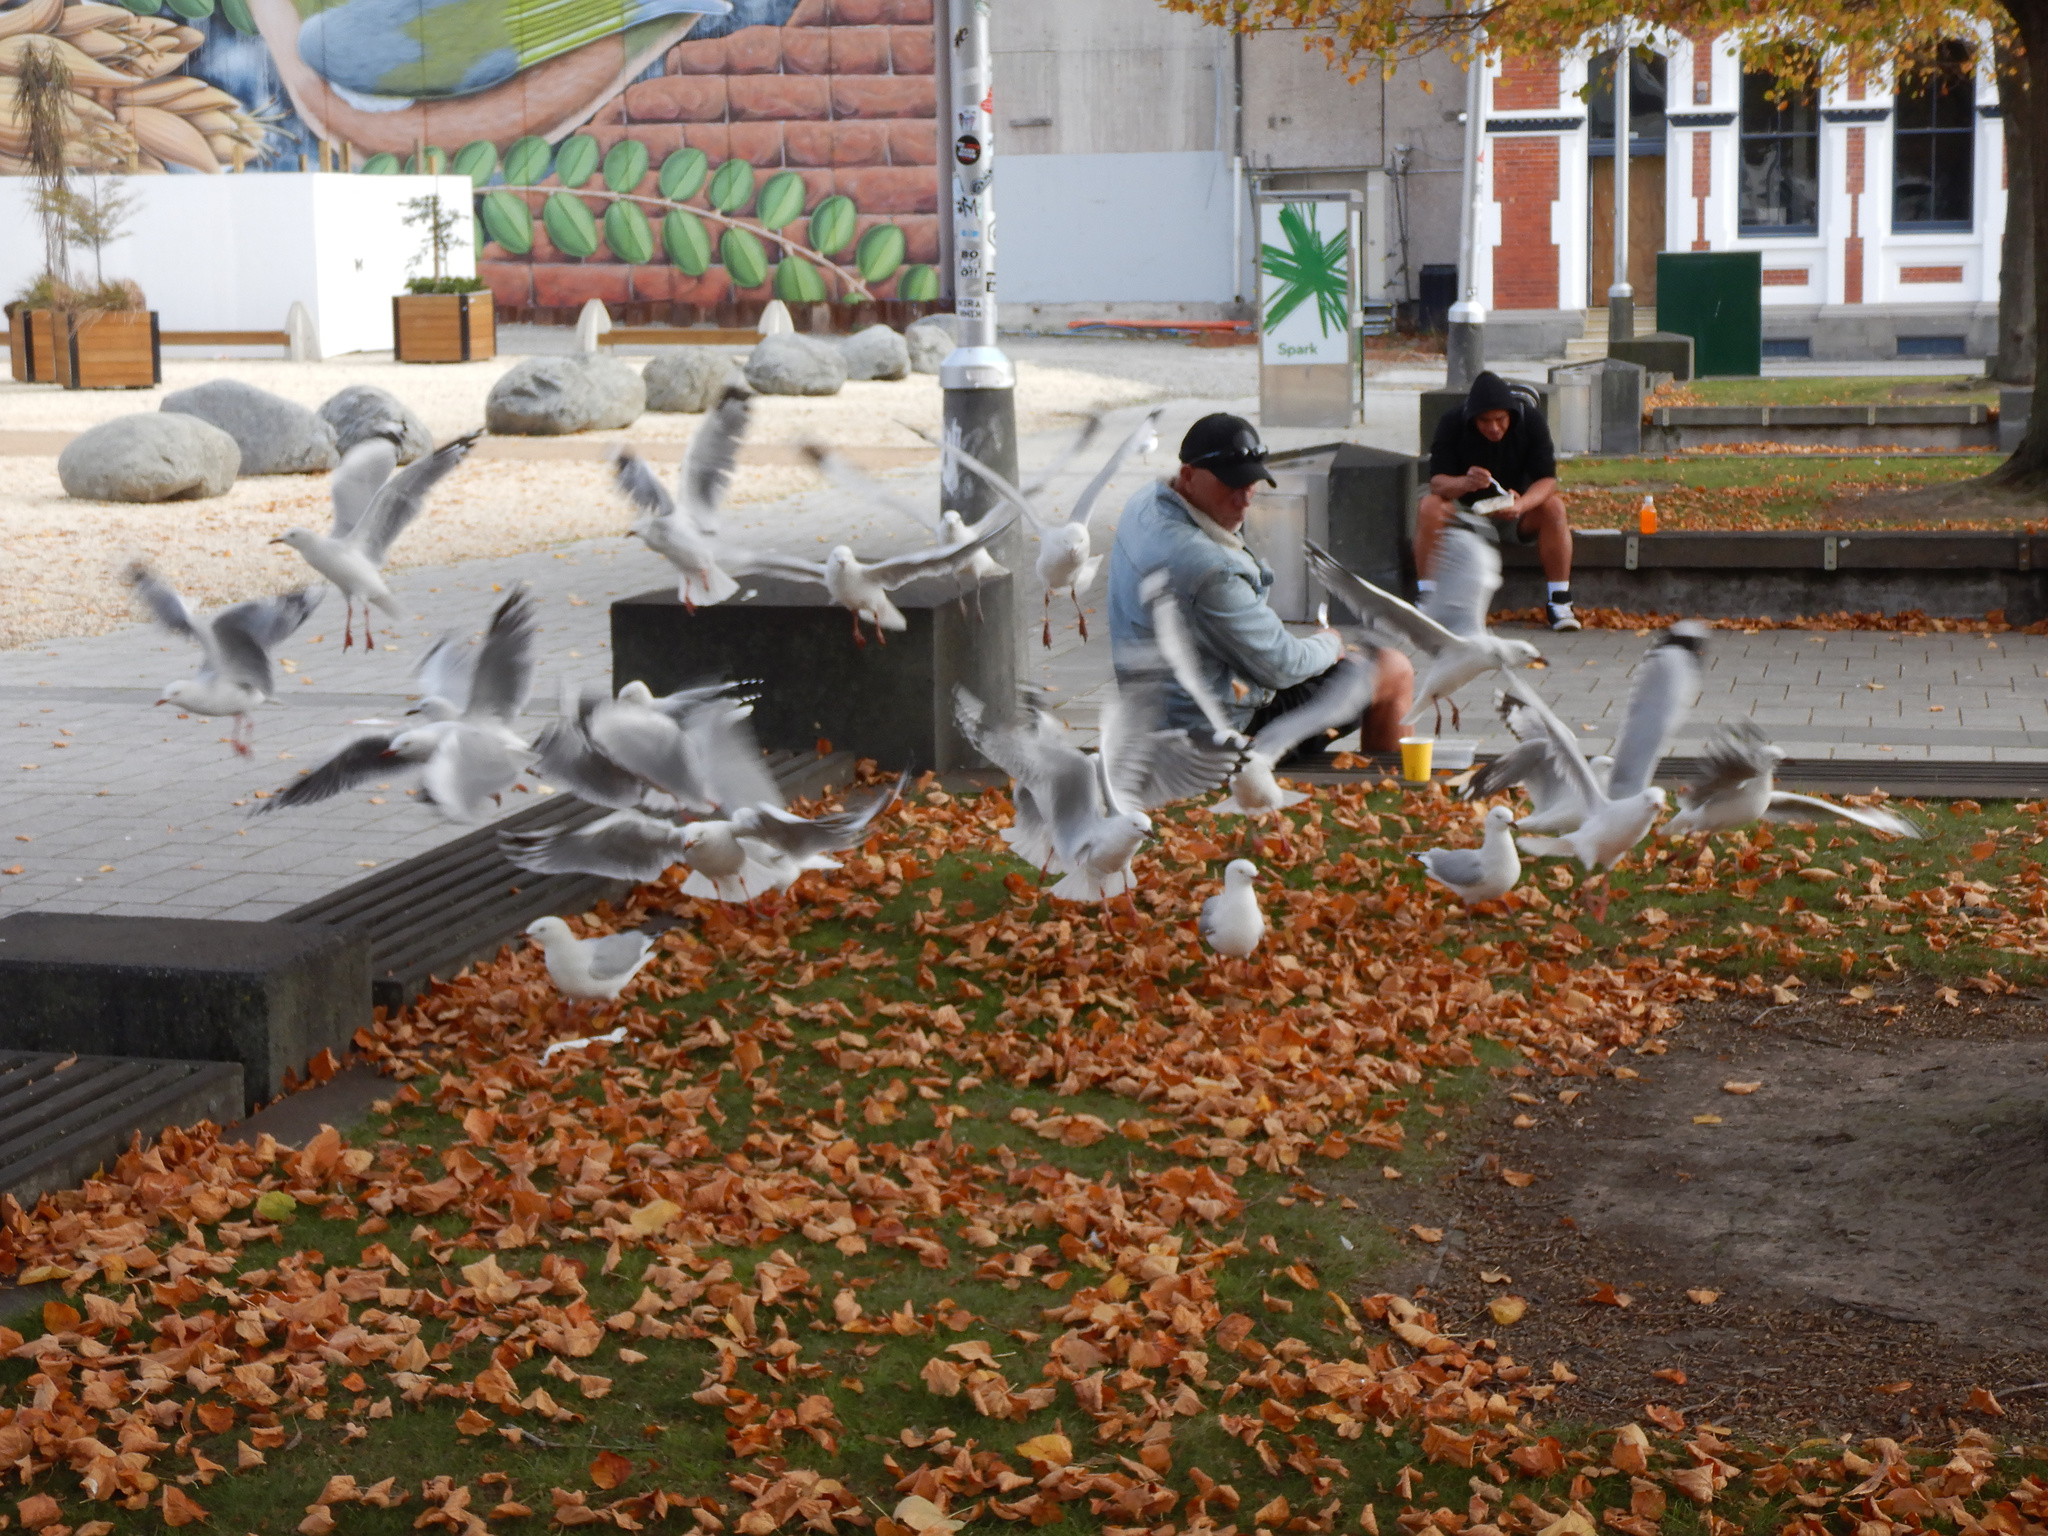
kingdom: Animalia
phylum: Chordata
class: Aves
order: Charadriiformes
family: Laridae
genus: Chroicocephalus
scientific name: Chroicocephalus novaehollandiae
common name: Silver gull
